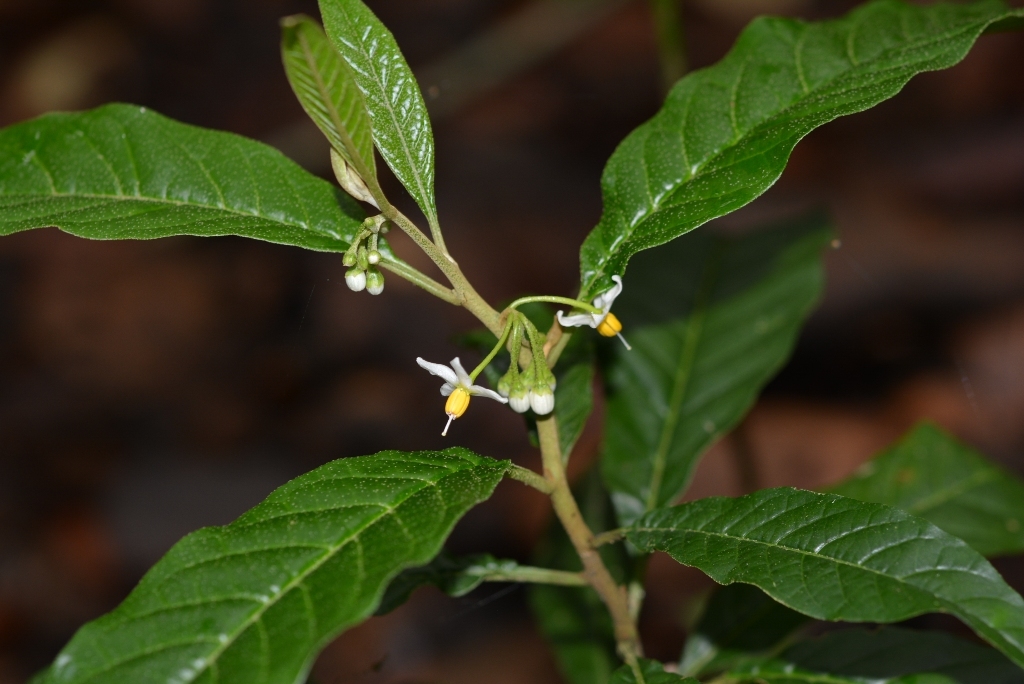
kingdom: Plantae
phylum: Tracheophyta
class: Magnoliopsida
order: Solanales
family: Solanaceae
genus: Solanum
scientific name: Solanum nigricans
